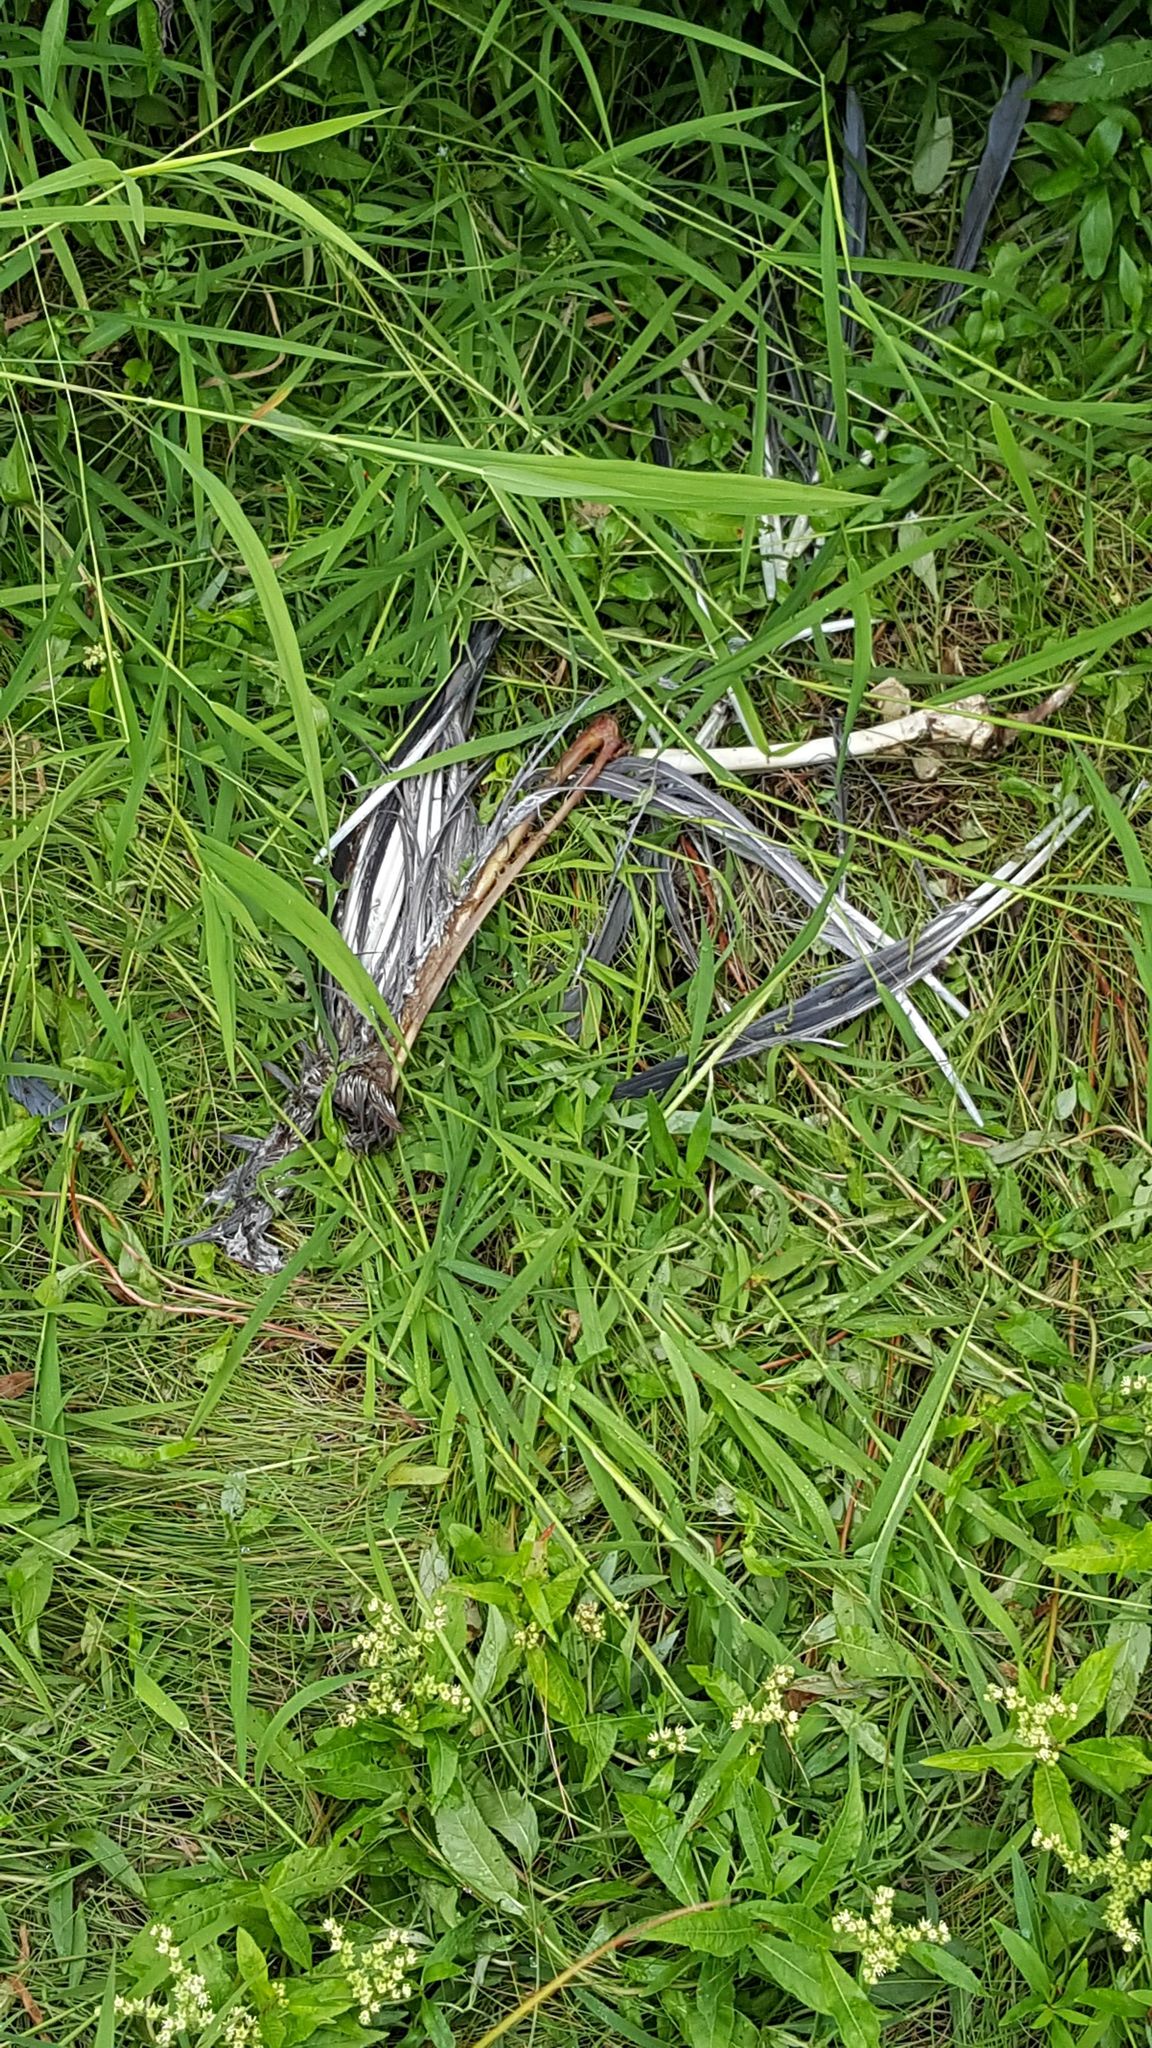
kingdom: Animalia
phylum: Chordata
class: Aves
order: Pelecaniformes
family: Ardeidae
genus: Ardea
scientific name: Ardea herodias
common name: Great blue heron
